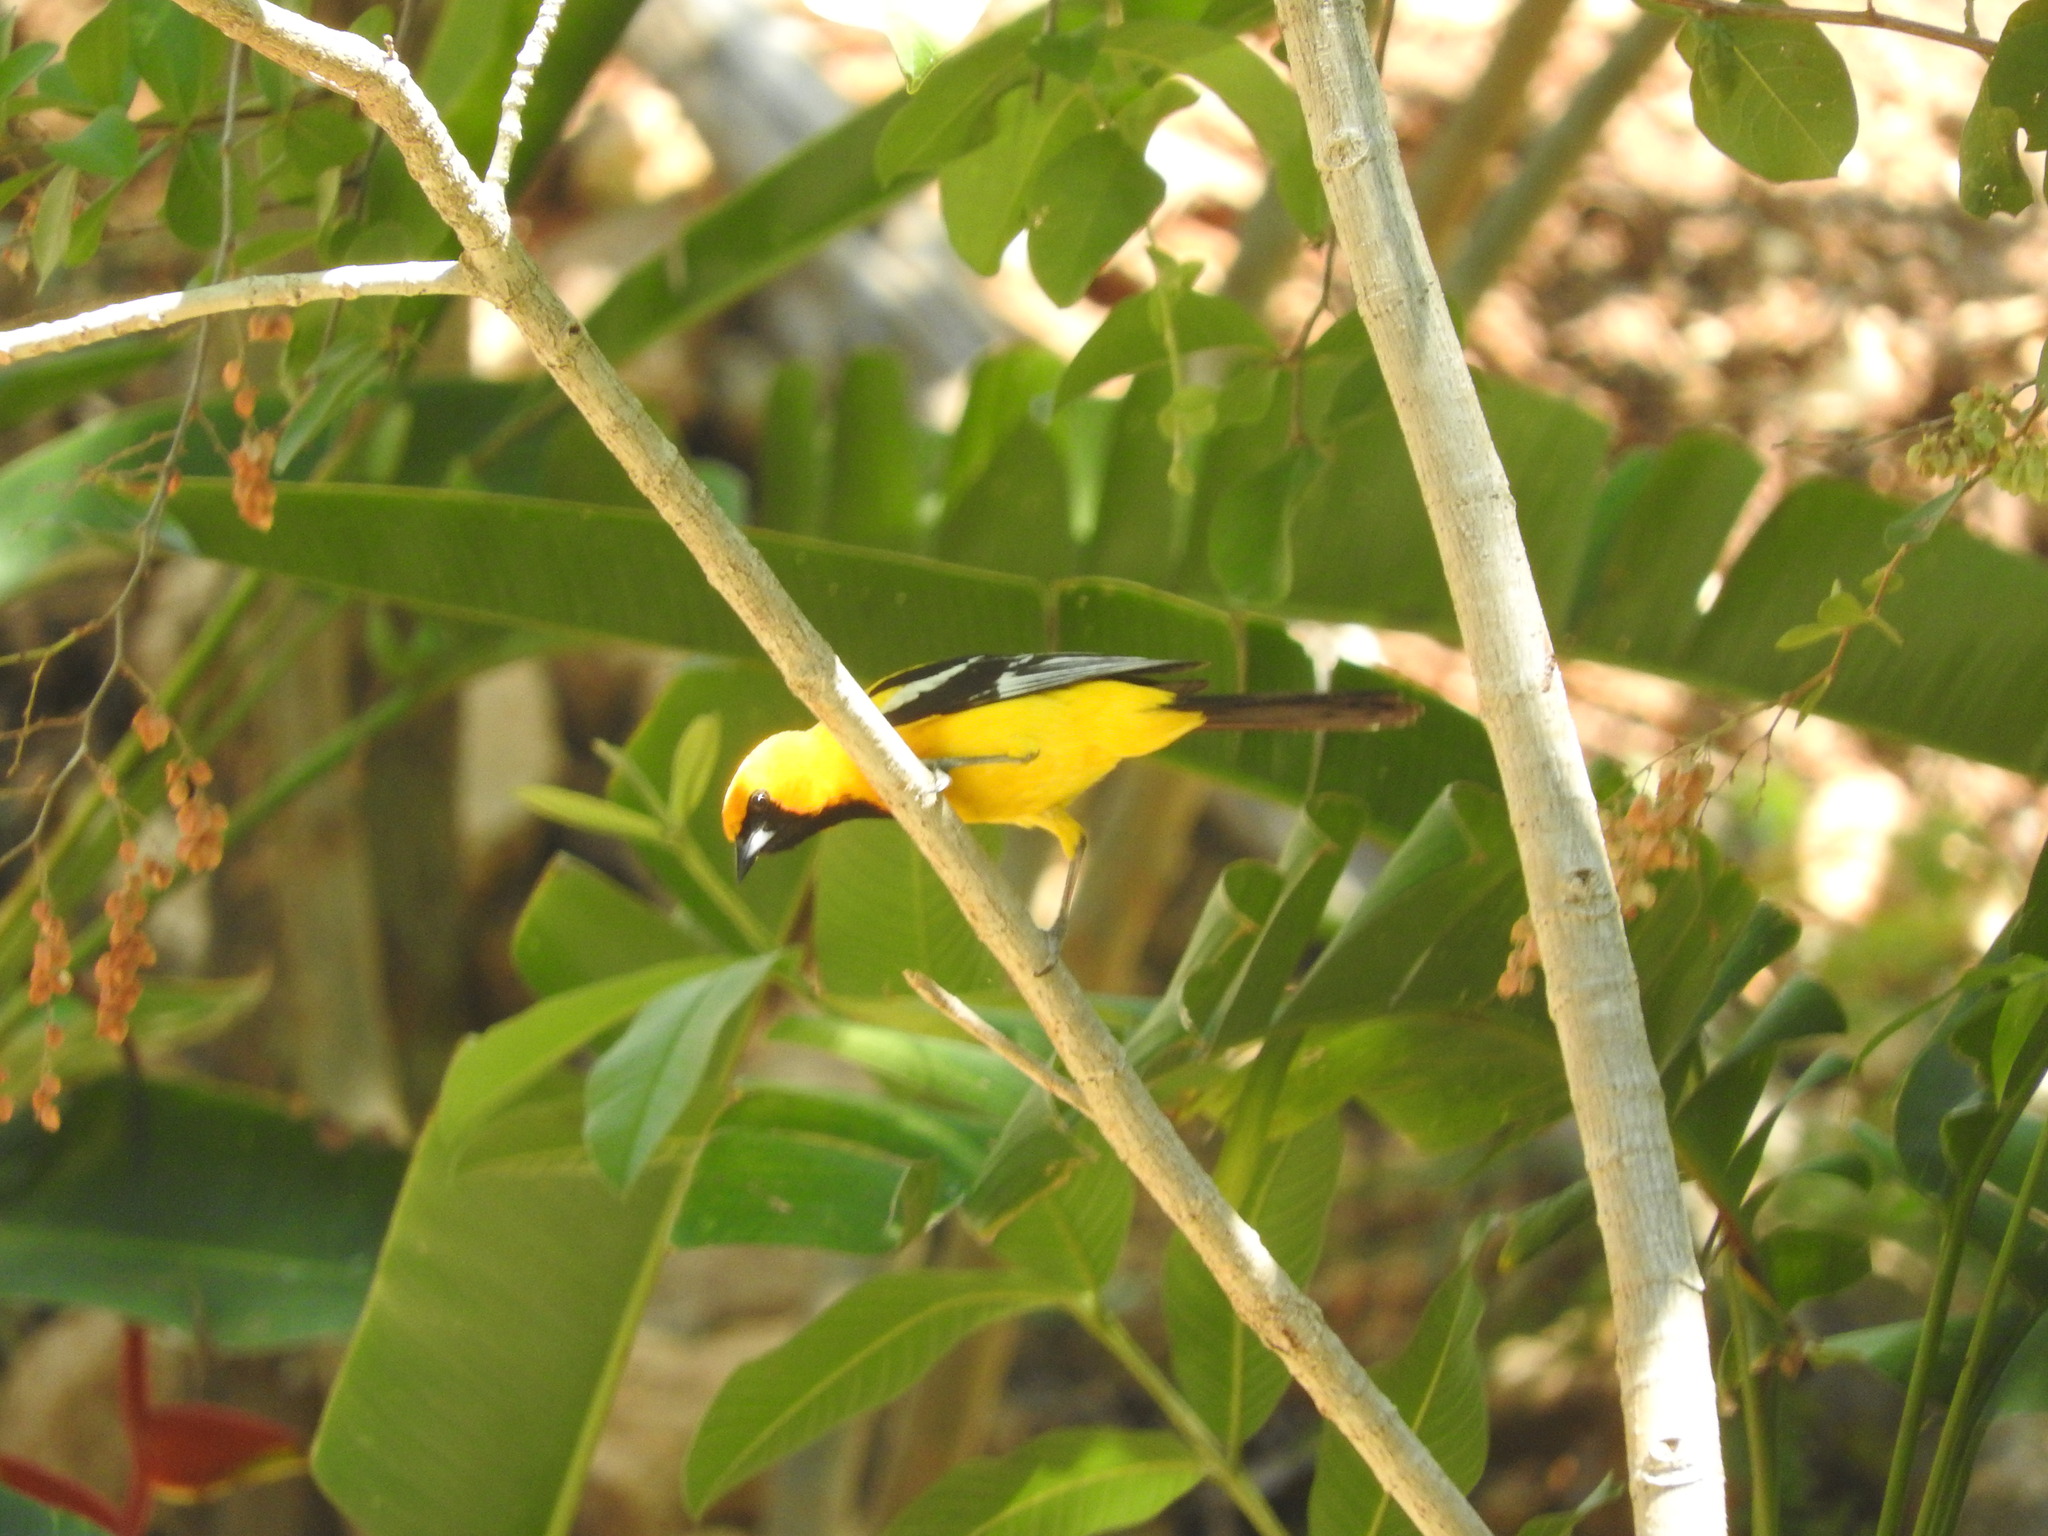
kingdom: Animalia
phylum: Chordata
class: Aves
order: Passeriformes
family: Icteridae
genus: Icterus
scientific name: Icterus auratus
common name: Orange oriole
